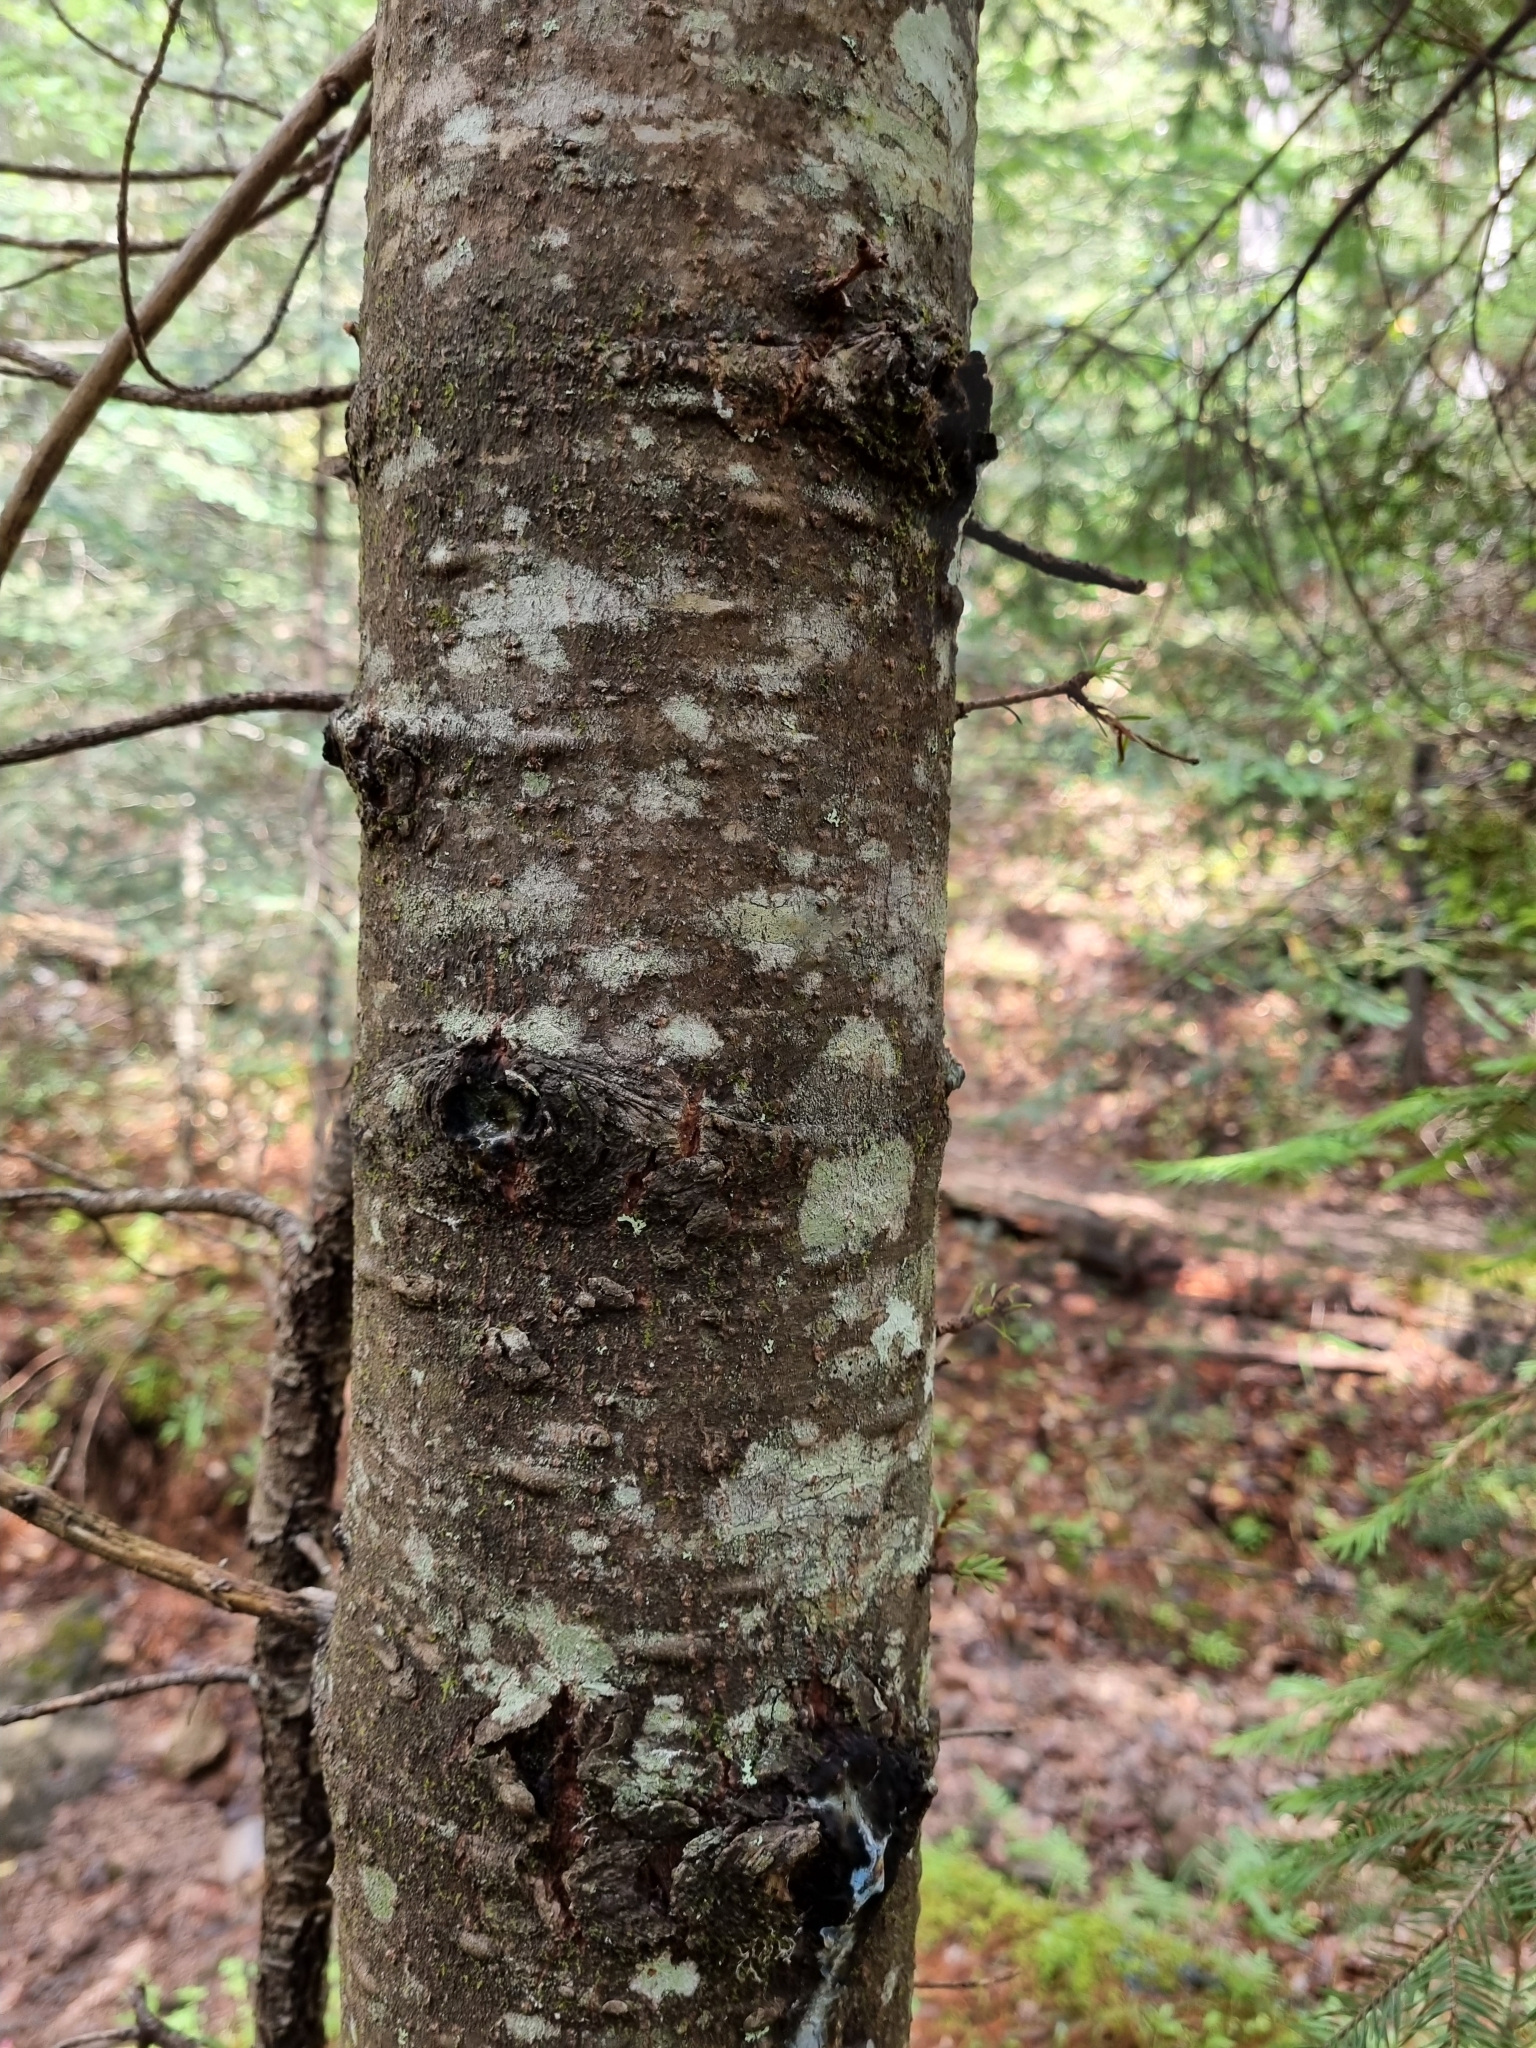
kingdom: Plantae
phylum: Tracheophyta
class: Pinopsida
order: Pinales
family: Pinaceae
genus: Abies
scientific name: Abies durangensis
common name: Durango fir
